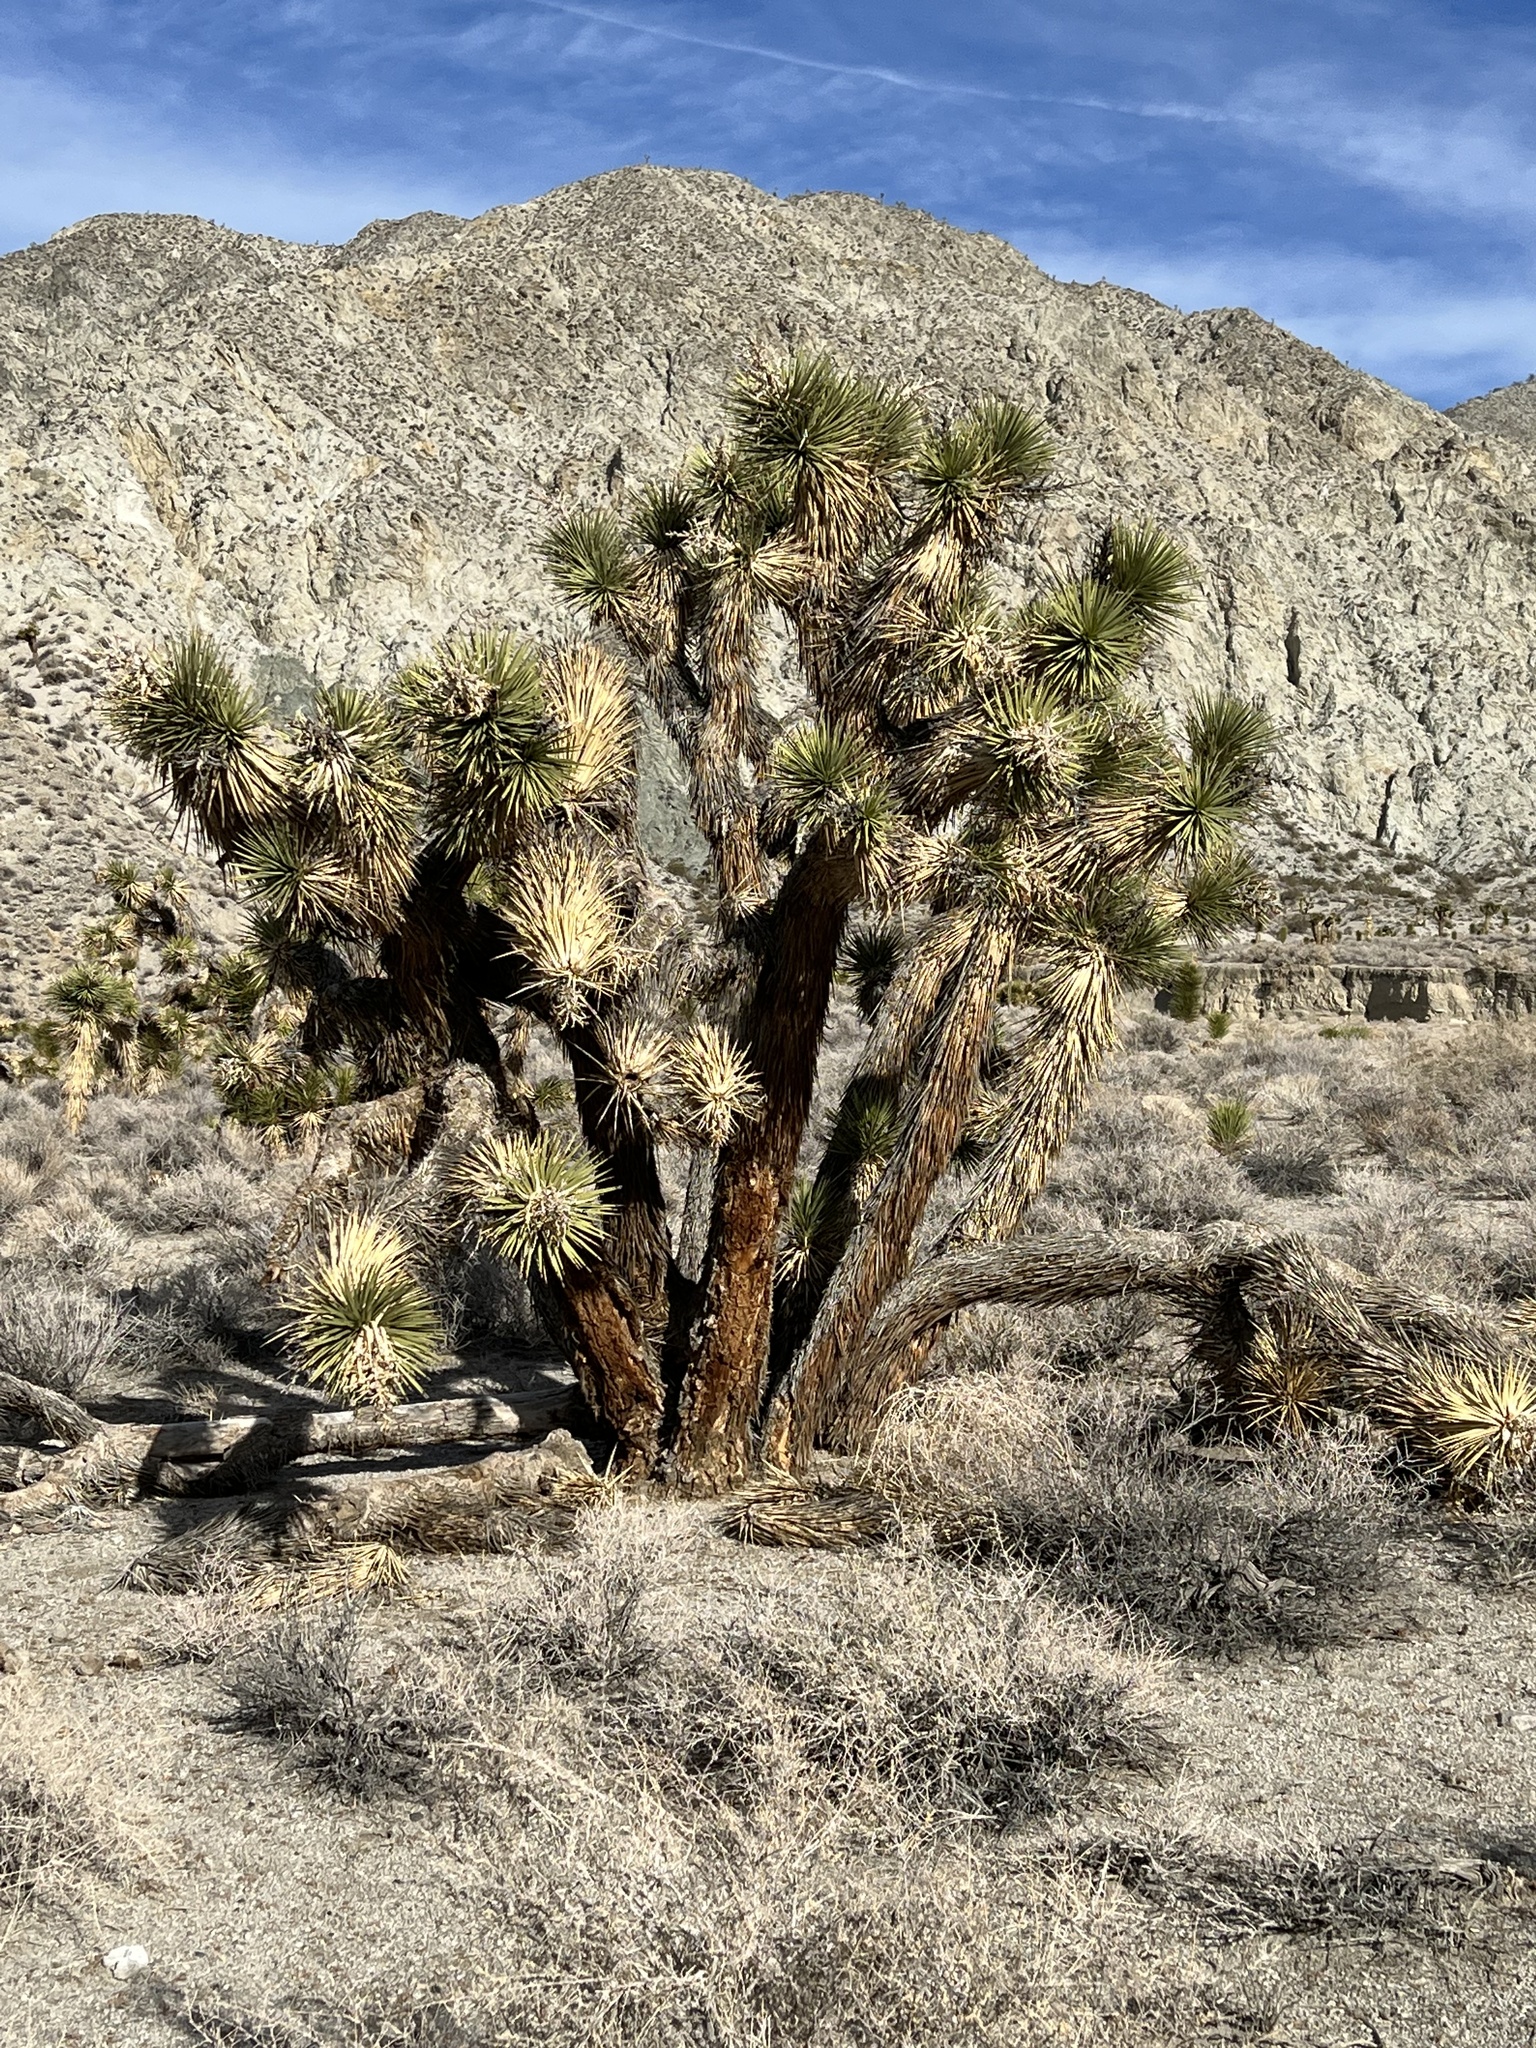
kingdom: Plantae
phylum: Tracheophyta
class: Liliopsida
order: Asparagales
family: Asparagaceae
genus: Yucca
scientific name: Yucca brevifolia
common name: Joshua tree
